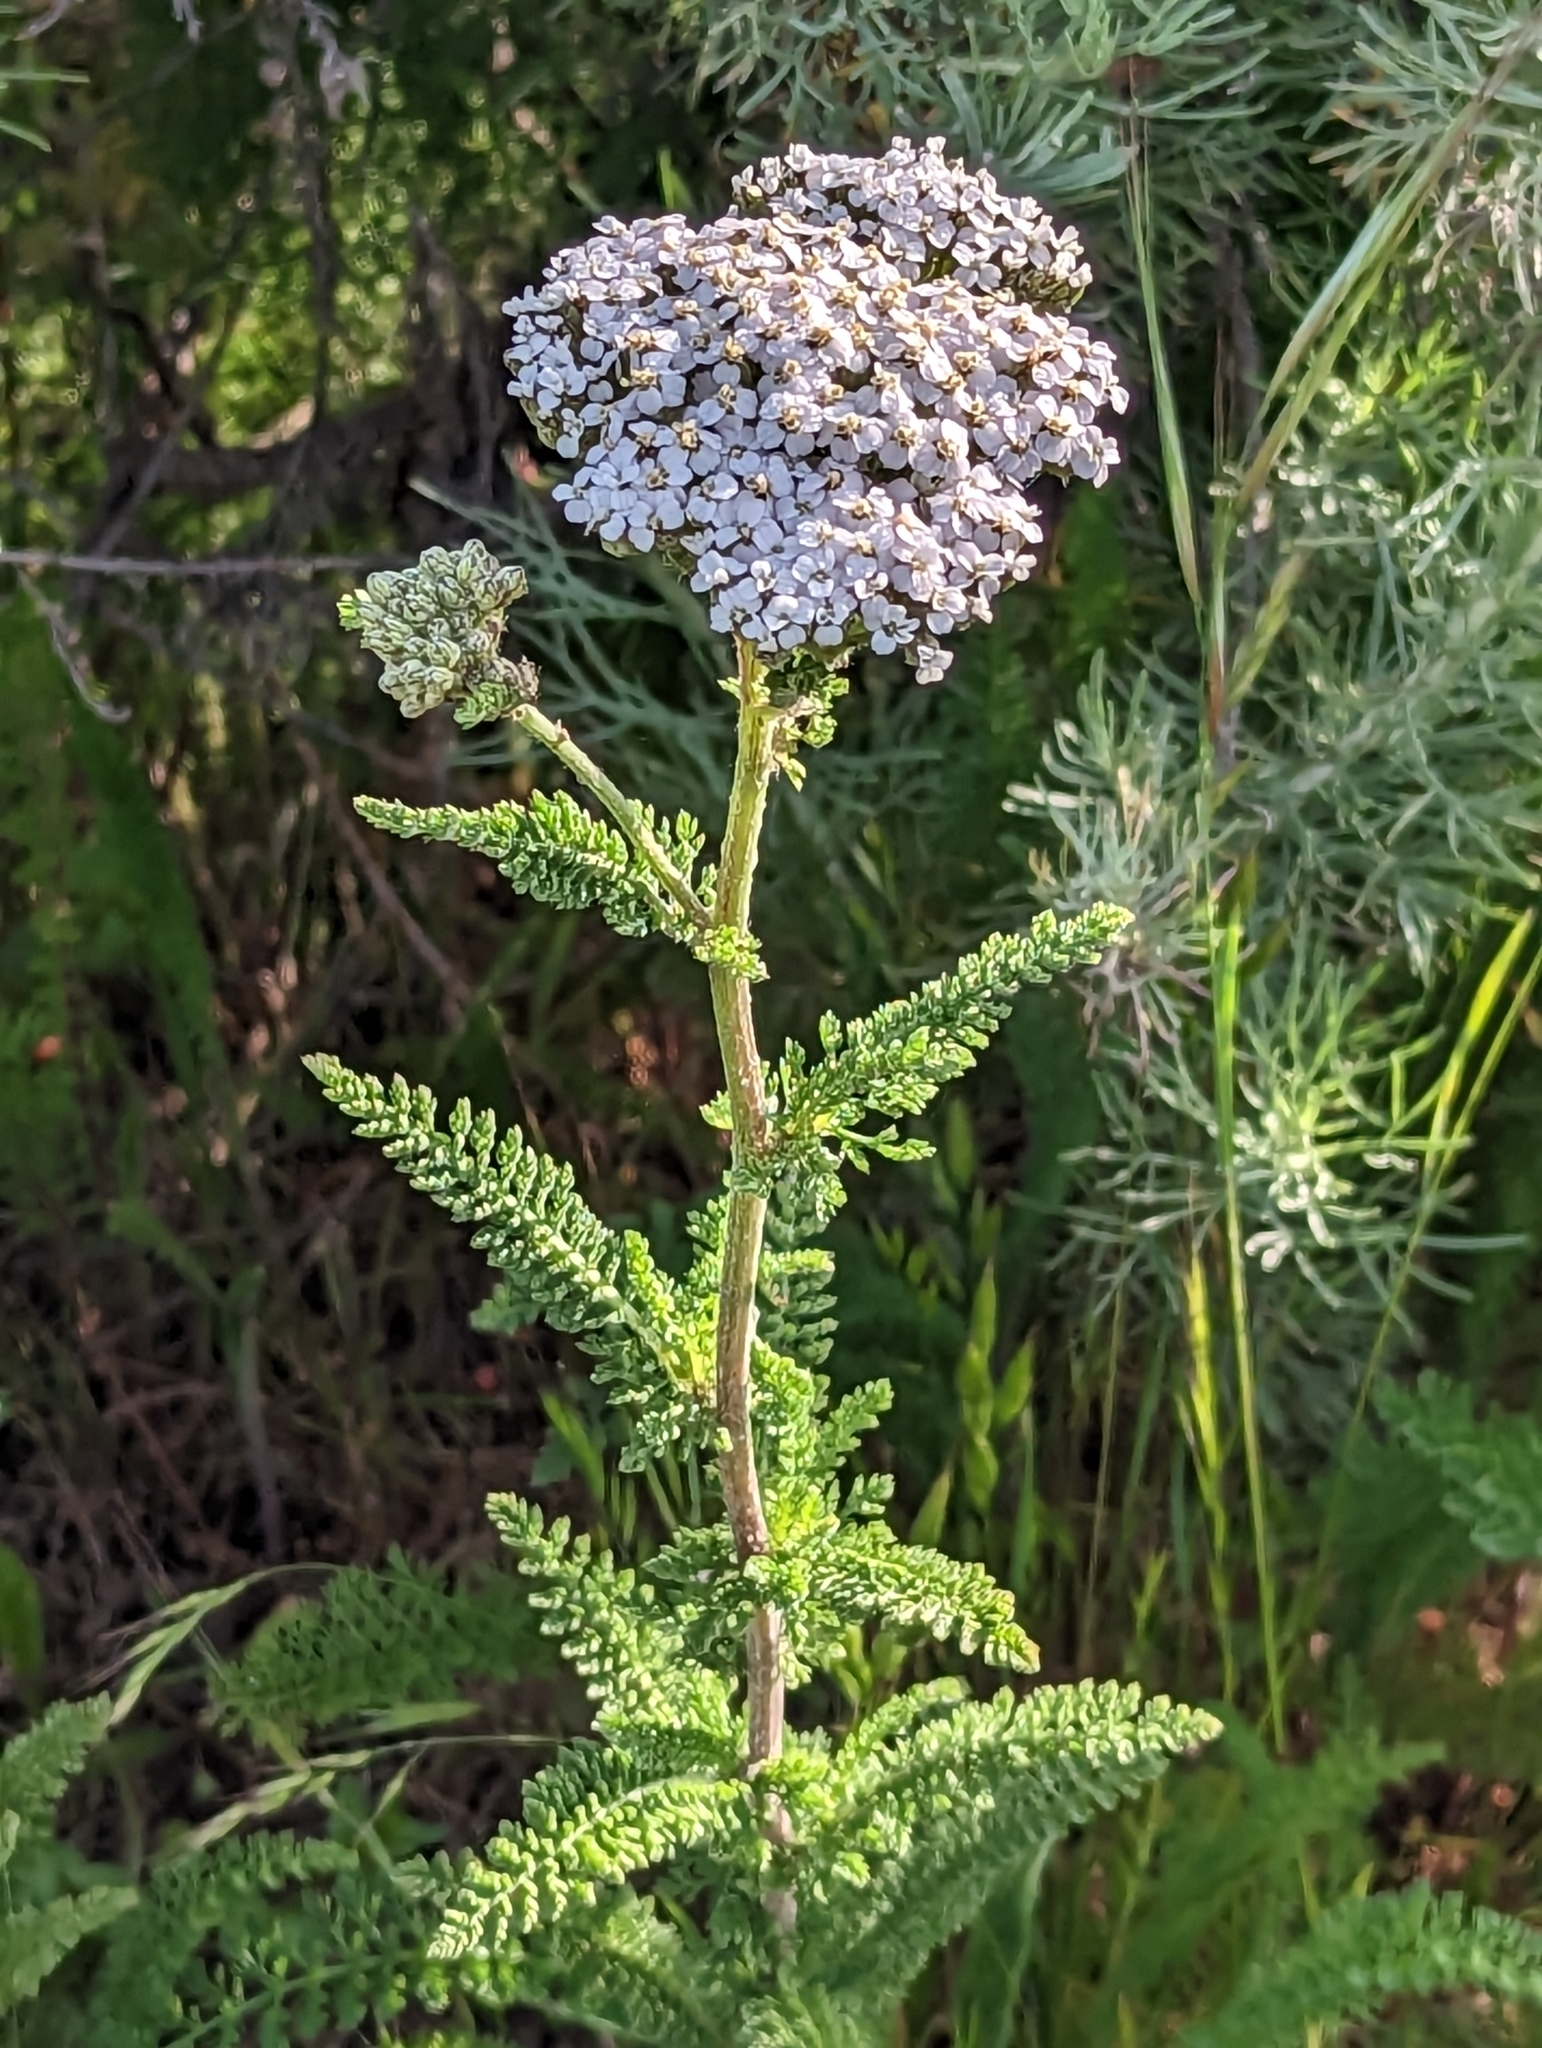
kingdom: Plantae
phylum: Tracheophyta
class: Magnoliopsida
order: Asterales
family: Asteraceae
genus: Achillea
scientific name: Achillea millefolium
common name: Yarrow
